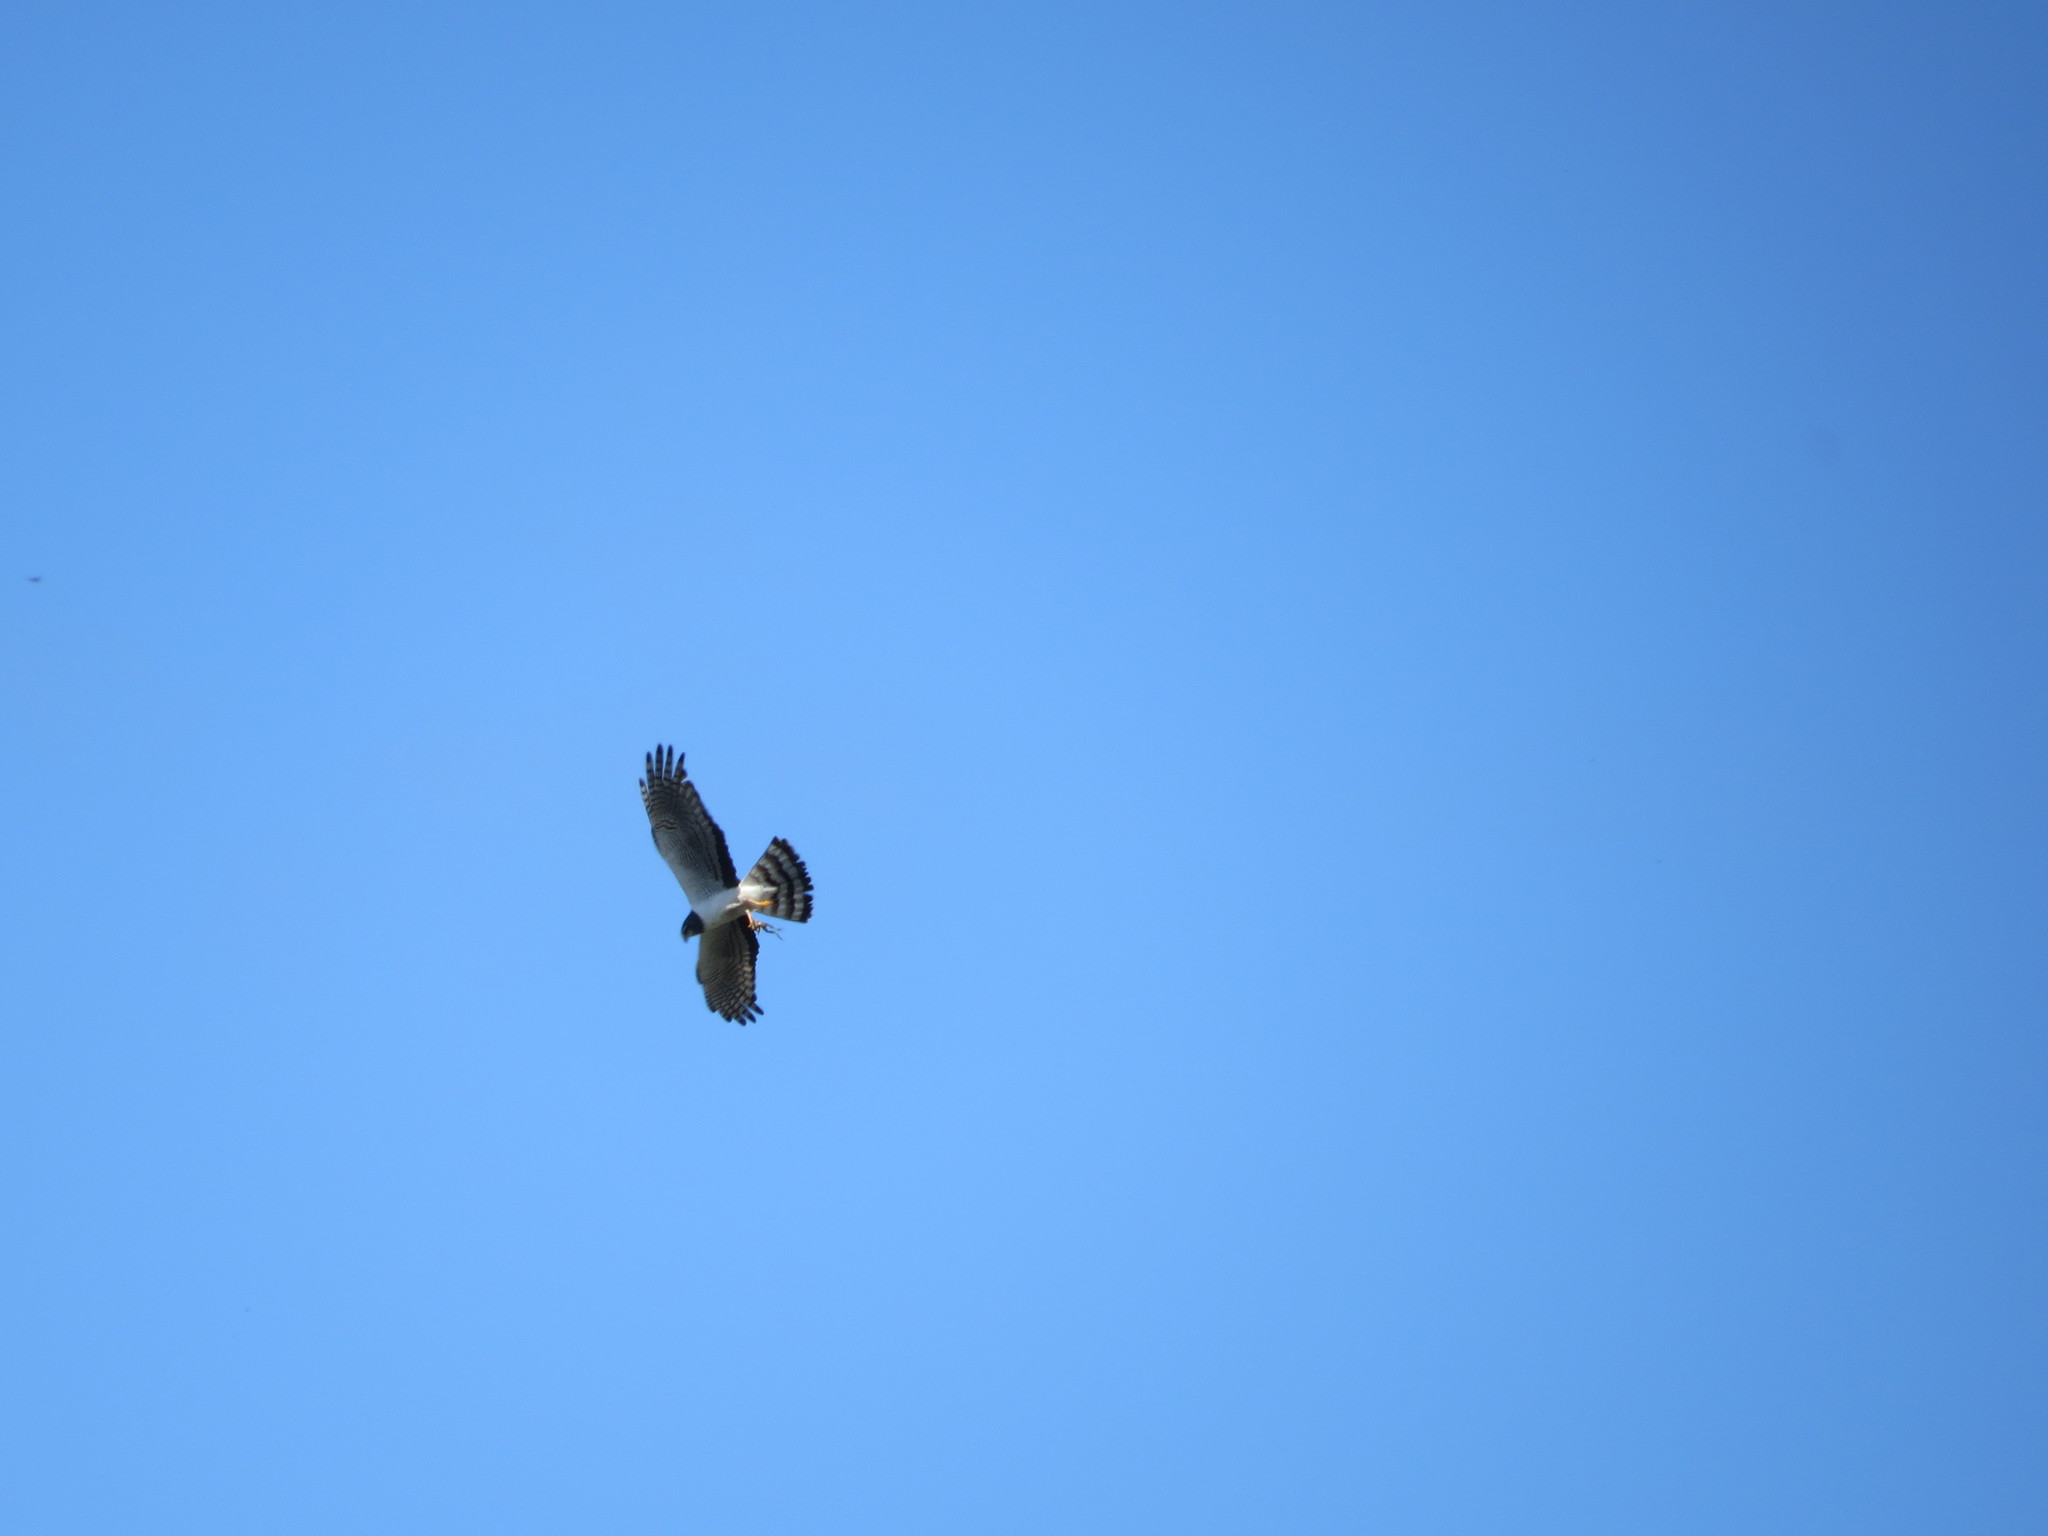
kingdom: Animalia
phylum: Chordata
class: Aves
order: Accipitriformes
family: Accipitridae
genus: Circus
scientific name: Circus buffoni
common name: Long-winged harrier
